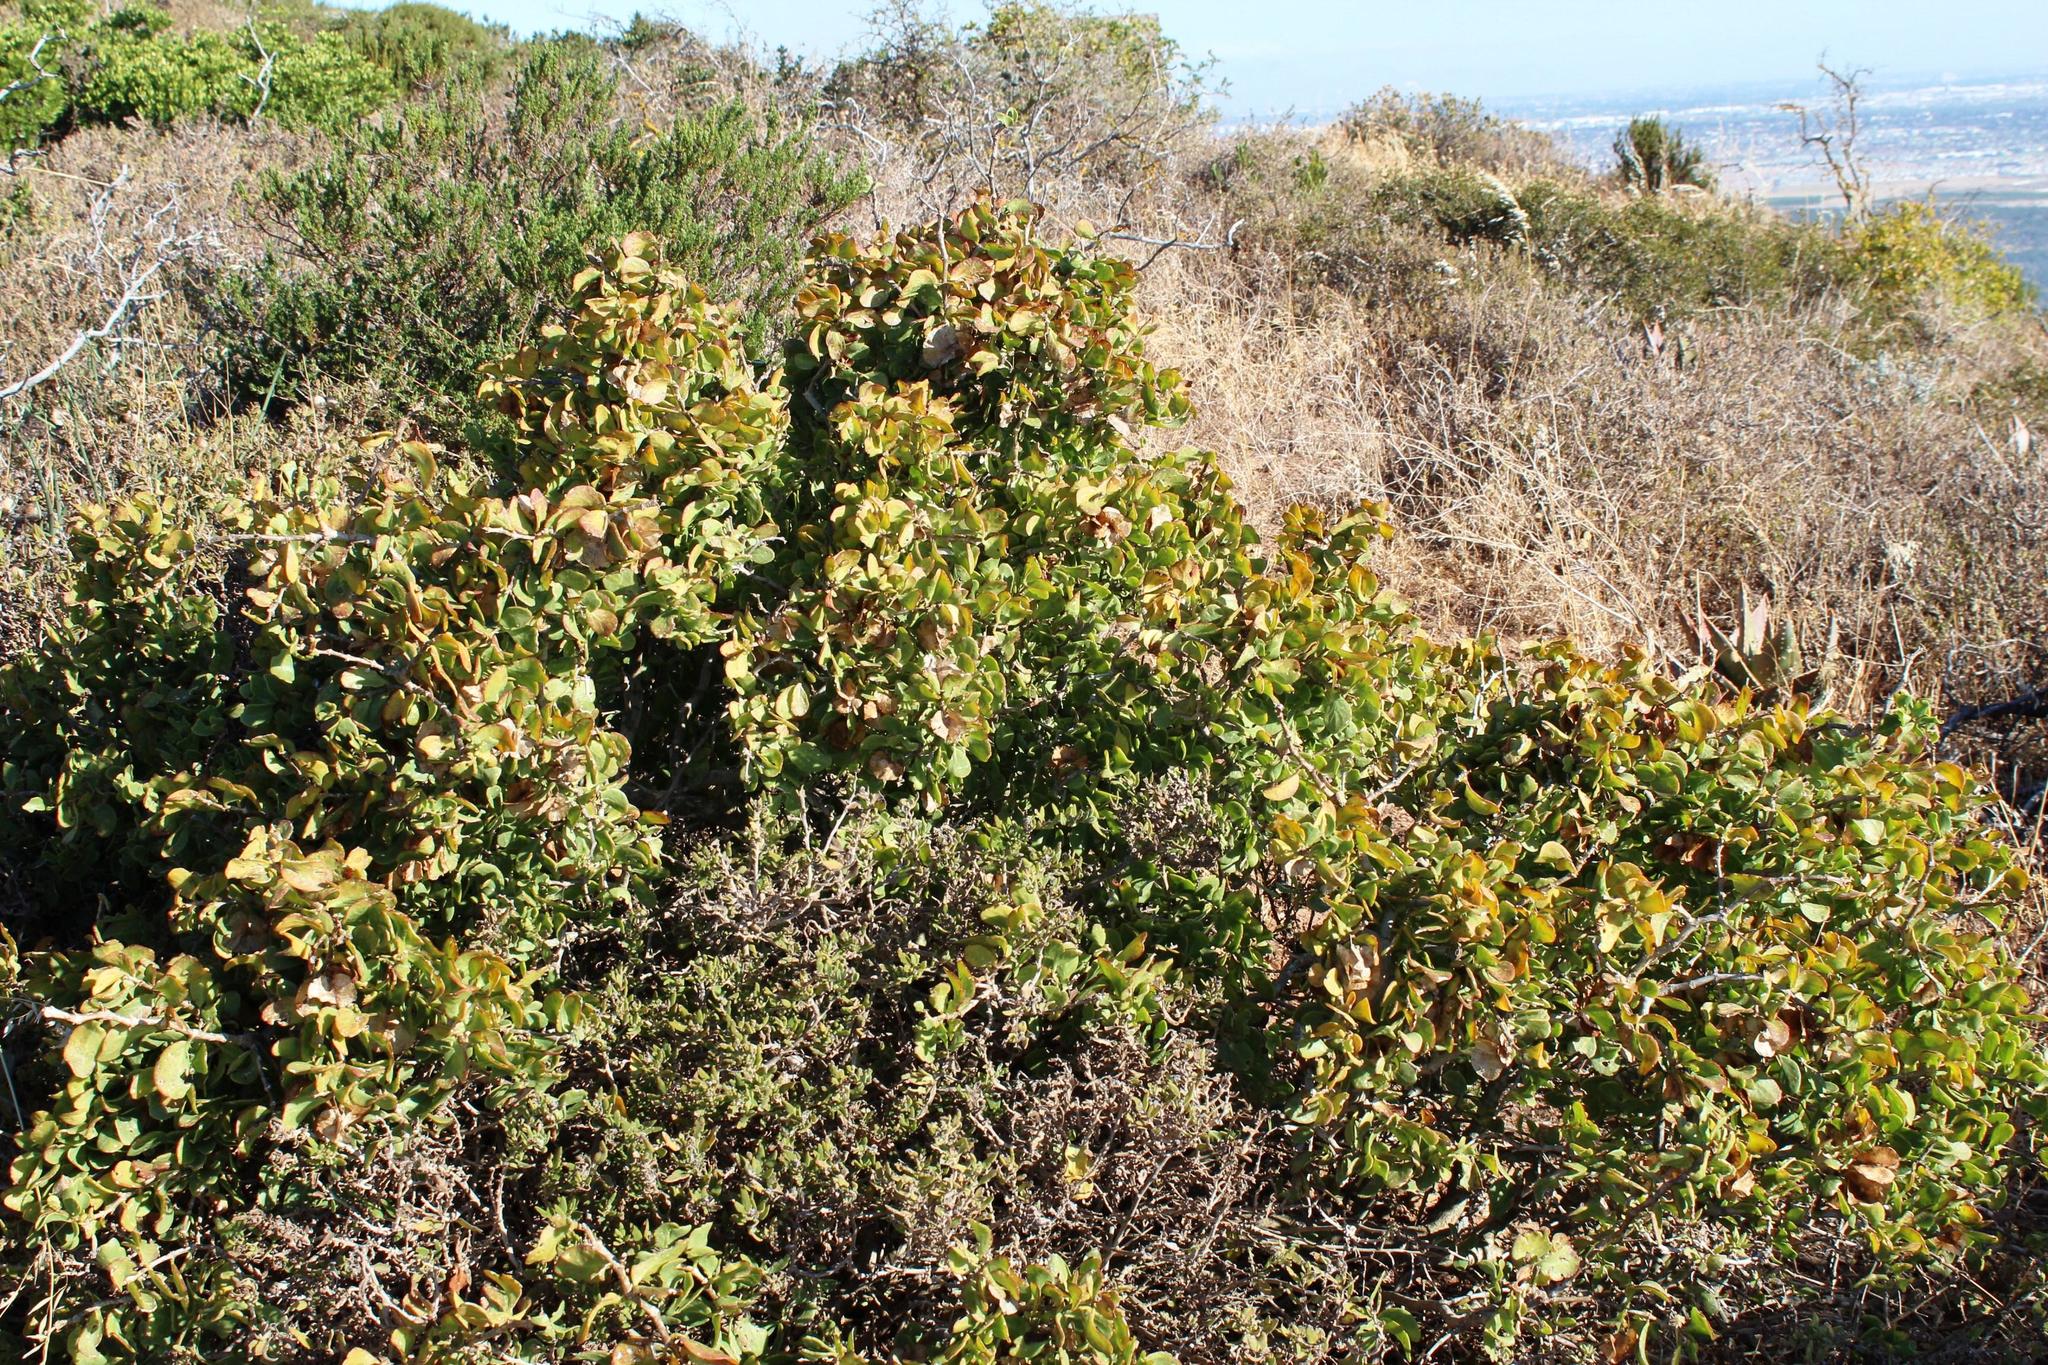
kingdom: Plantae
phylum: Tracheophyta
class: Magnoliopsida
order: Zygophyllales
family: Zygophyllaceae
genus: Roepera
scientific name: Roepera morgsana
